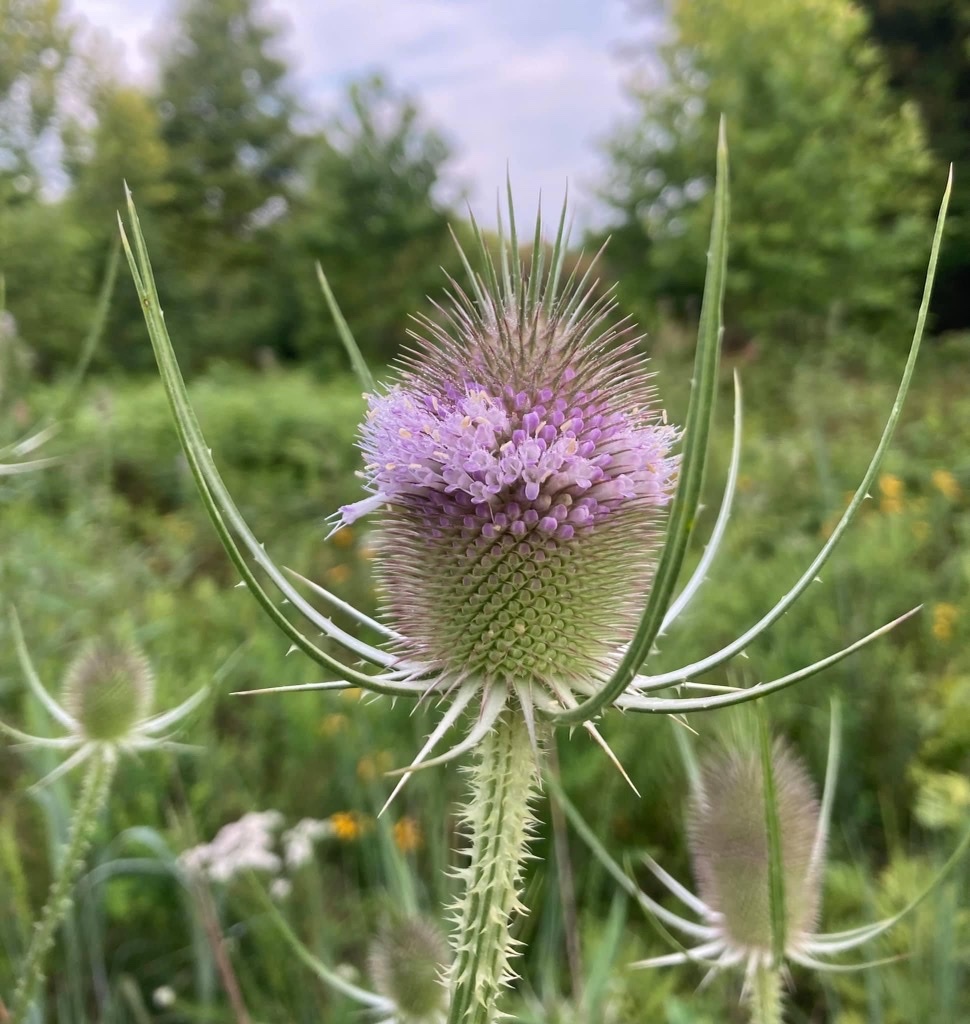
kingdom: Plantae
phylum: Tracheophyta
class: Magnoliopsida
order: Dipsacales
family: Caprifoliaceae
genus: Dipsacus
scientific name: Dipsacus fullonum
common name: Teasel
